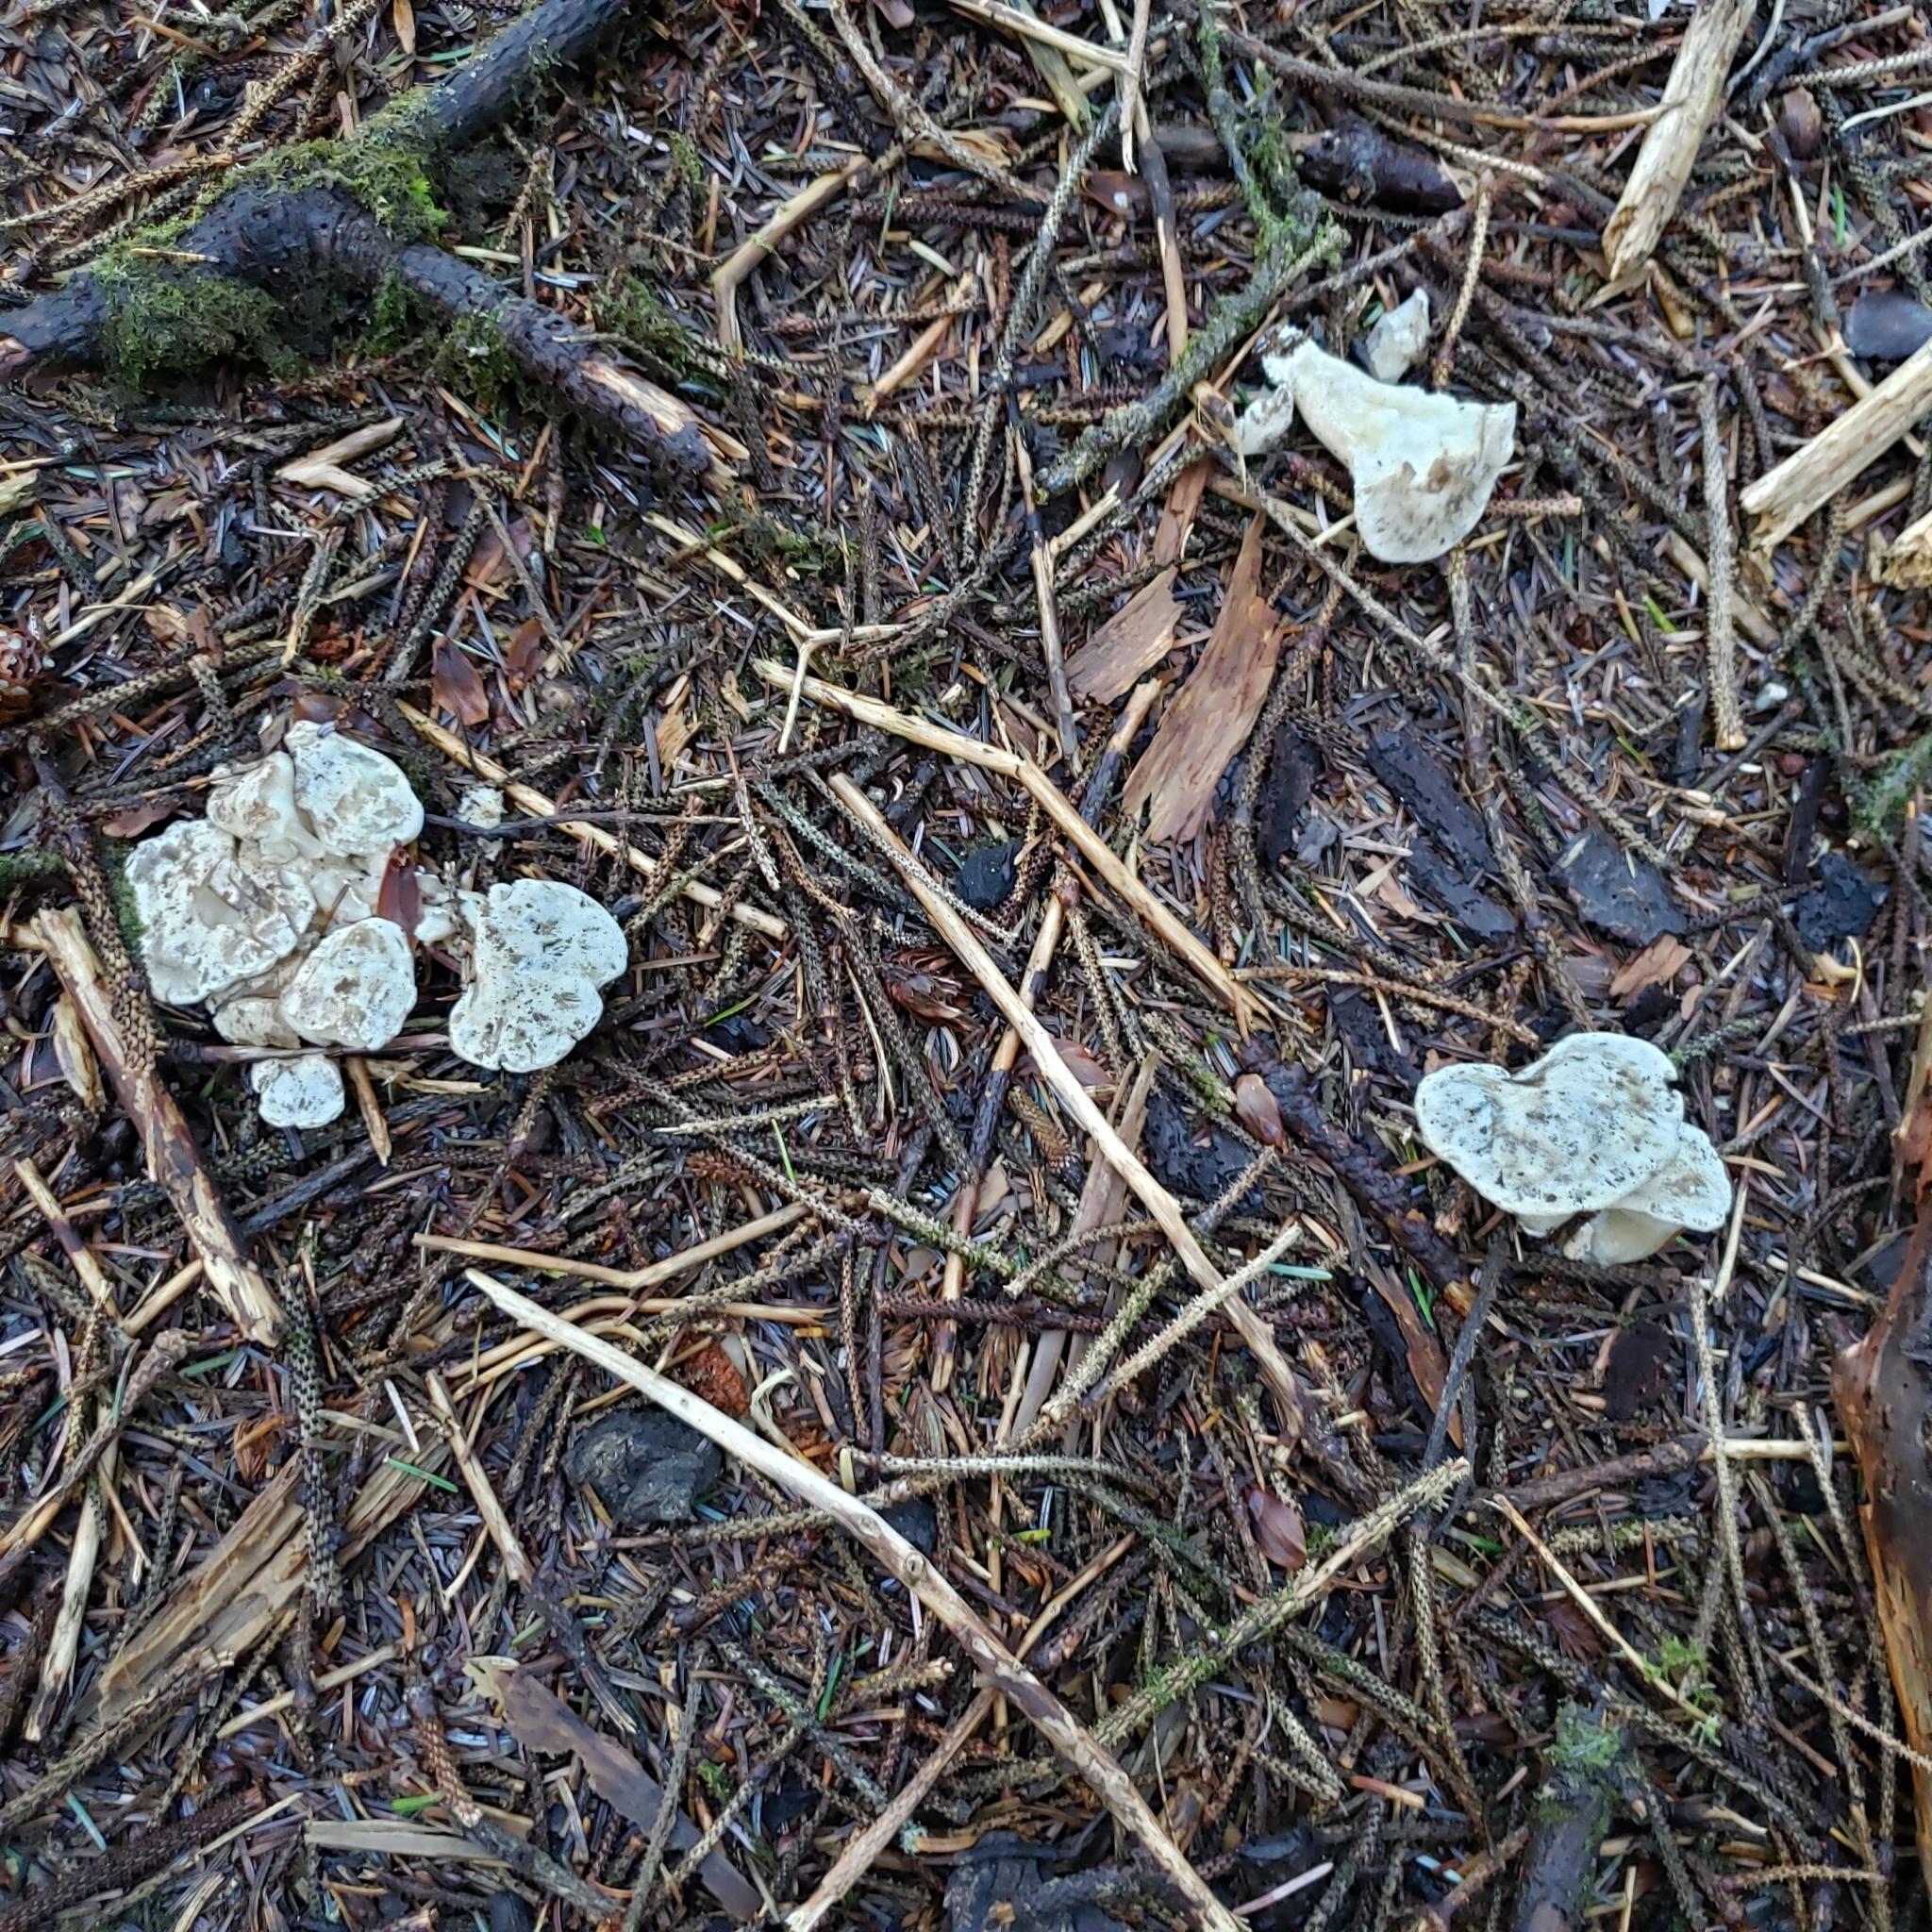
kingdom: Fungi
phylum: Basidiomycota
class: Agaricomycetes
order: Cantharellales
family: Hydnaceae
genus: Cantharellus
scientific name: Cantharellus subalbidus
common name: White chanterelle
